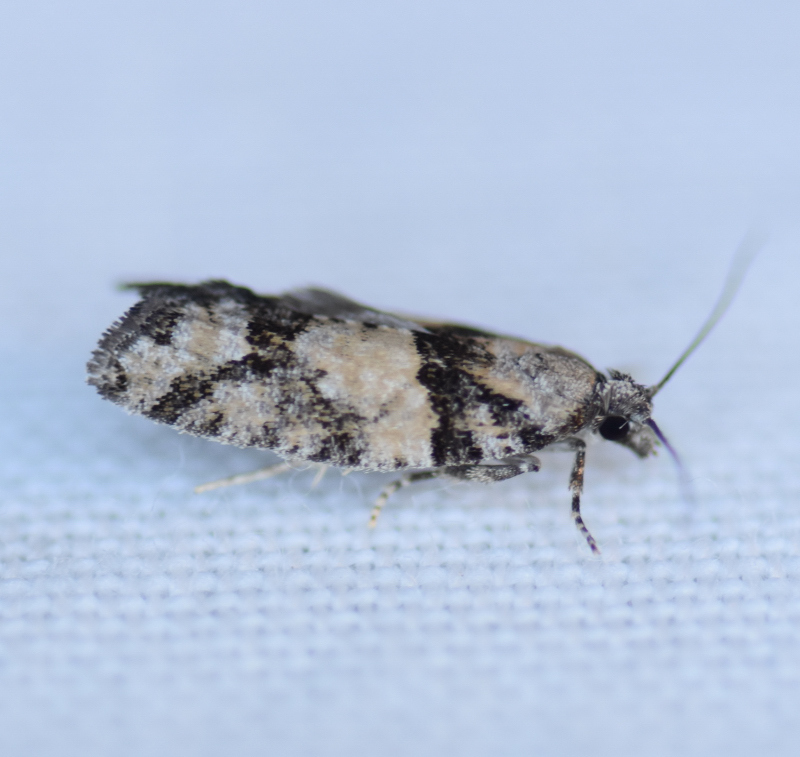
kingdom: Animalia
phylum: Arthropoda
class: Insecta
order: Lepidoptera
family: Tortricidae
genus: Epinotia
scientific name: Epinotia radicana
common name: Red-striped needleworm moth
